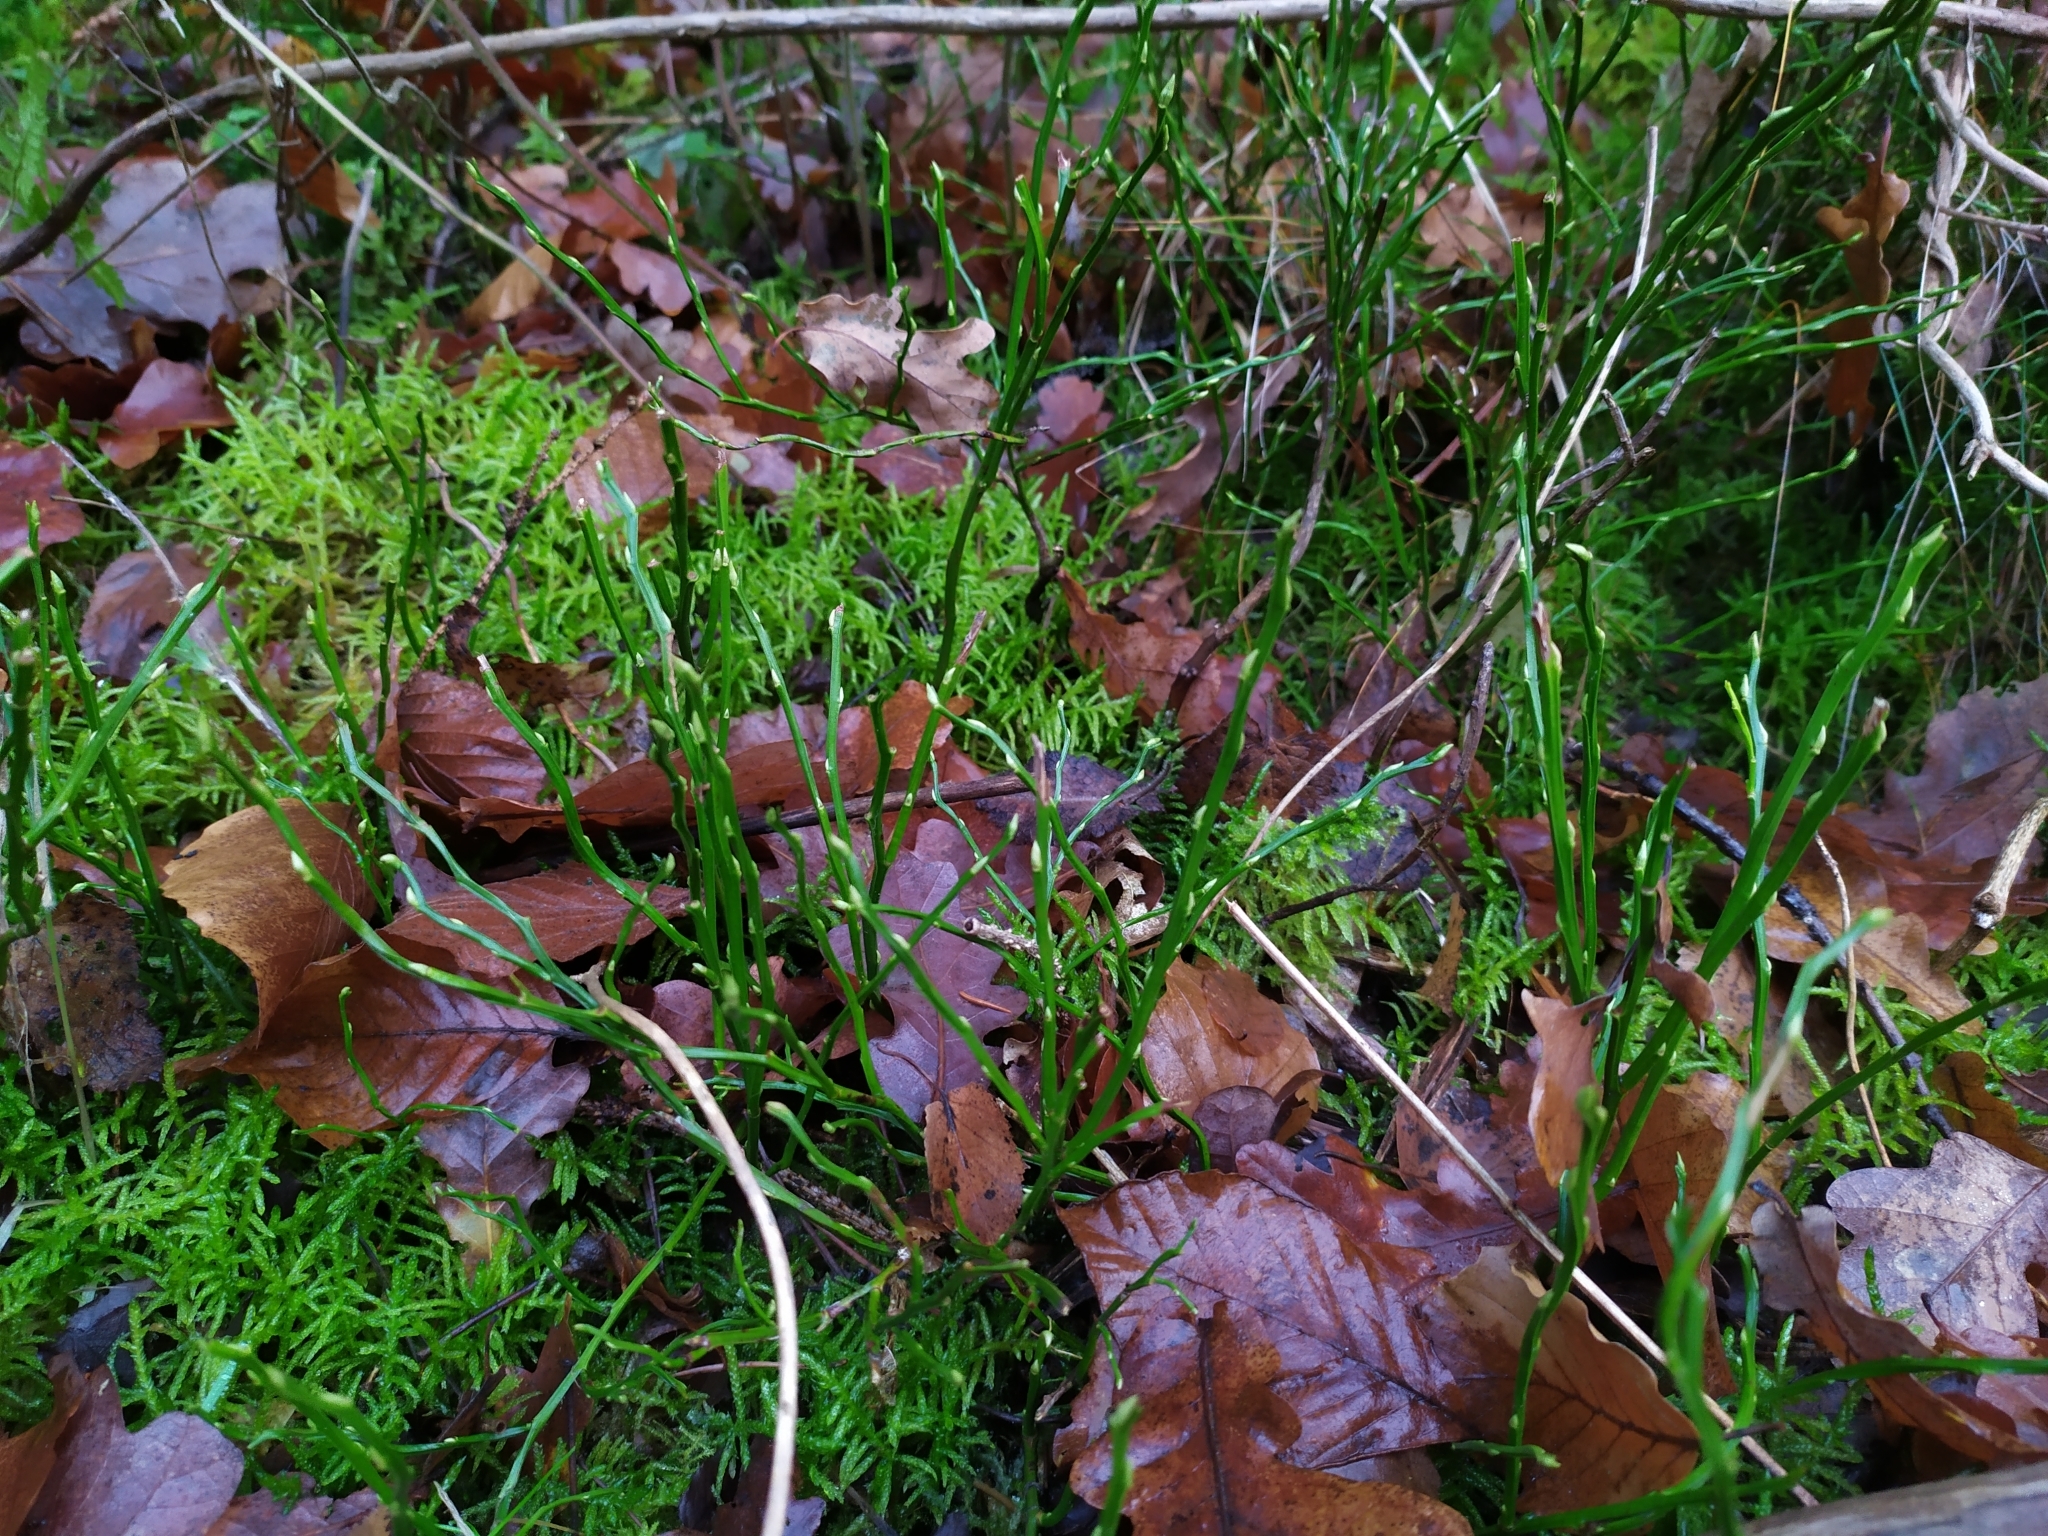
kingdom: Plantae
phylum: Tracheophyta
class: Magnoliopsida
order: Ericales
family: Ericaceae
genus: Vaccinium
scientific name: Vaccinium myrtillus
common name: Bilberry
